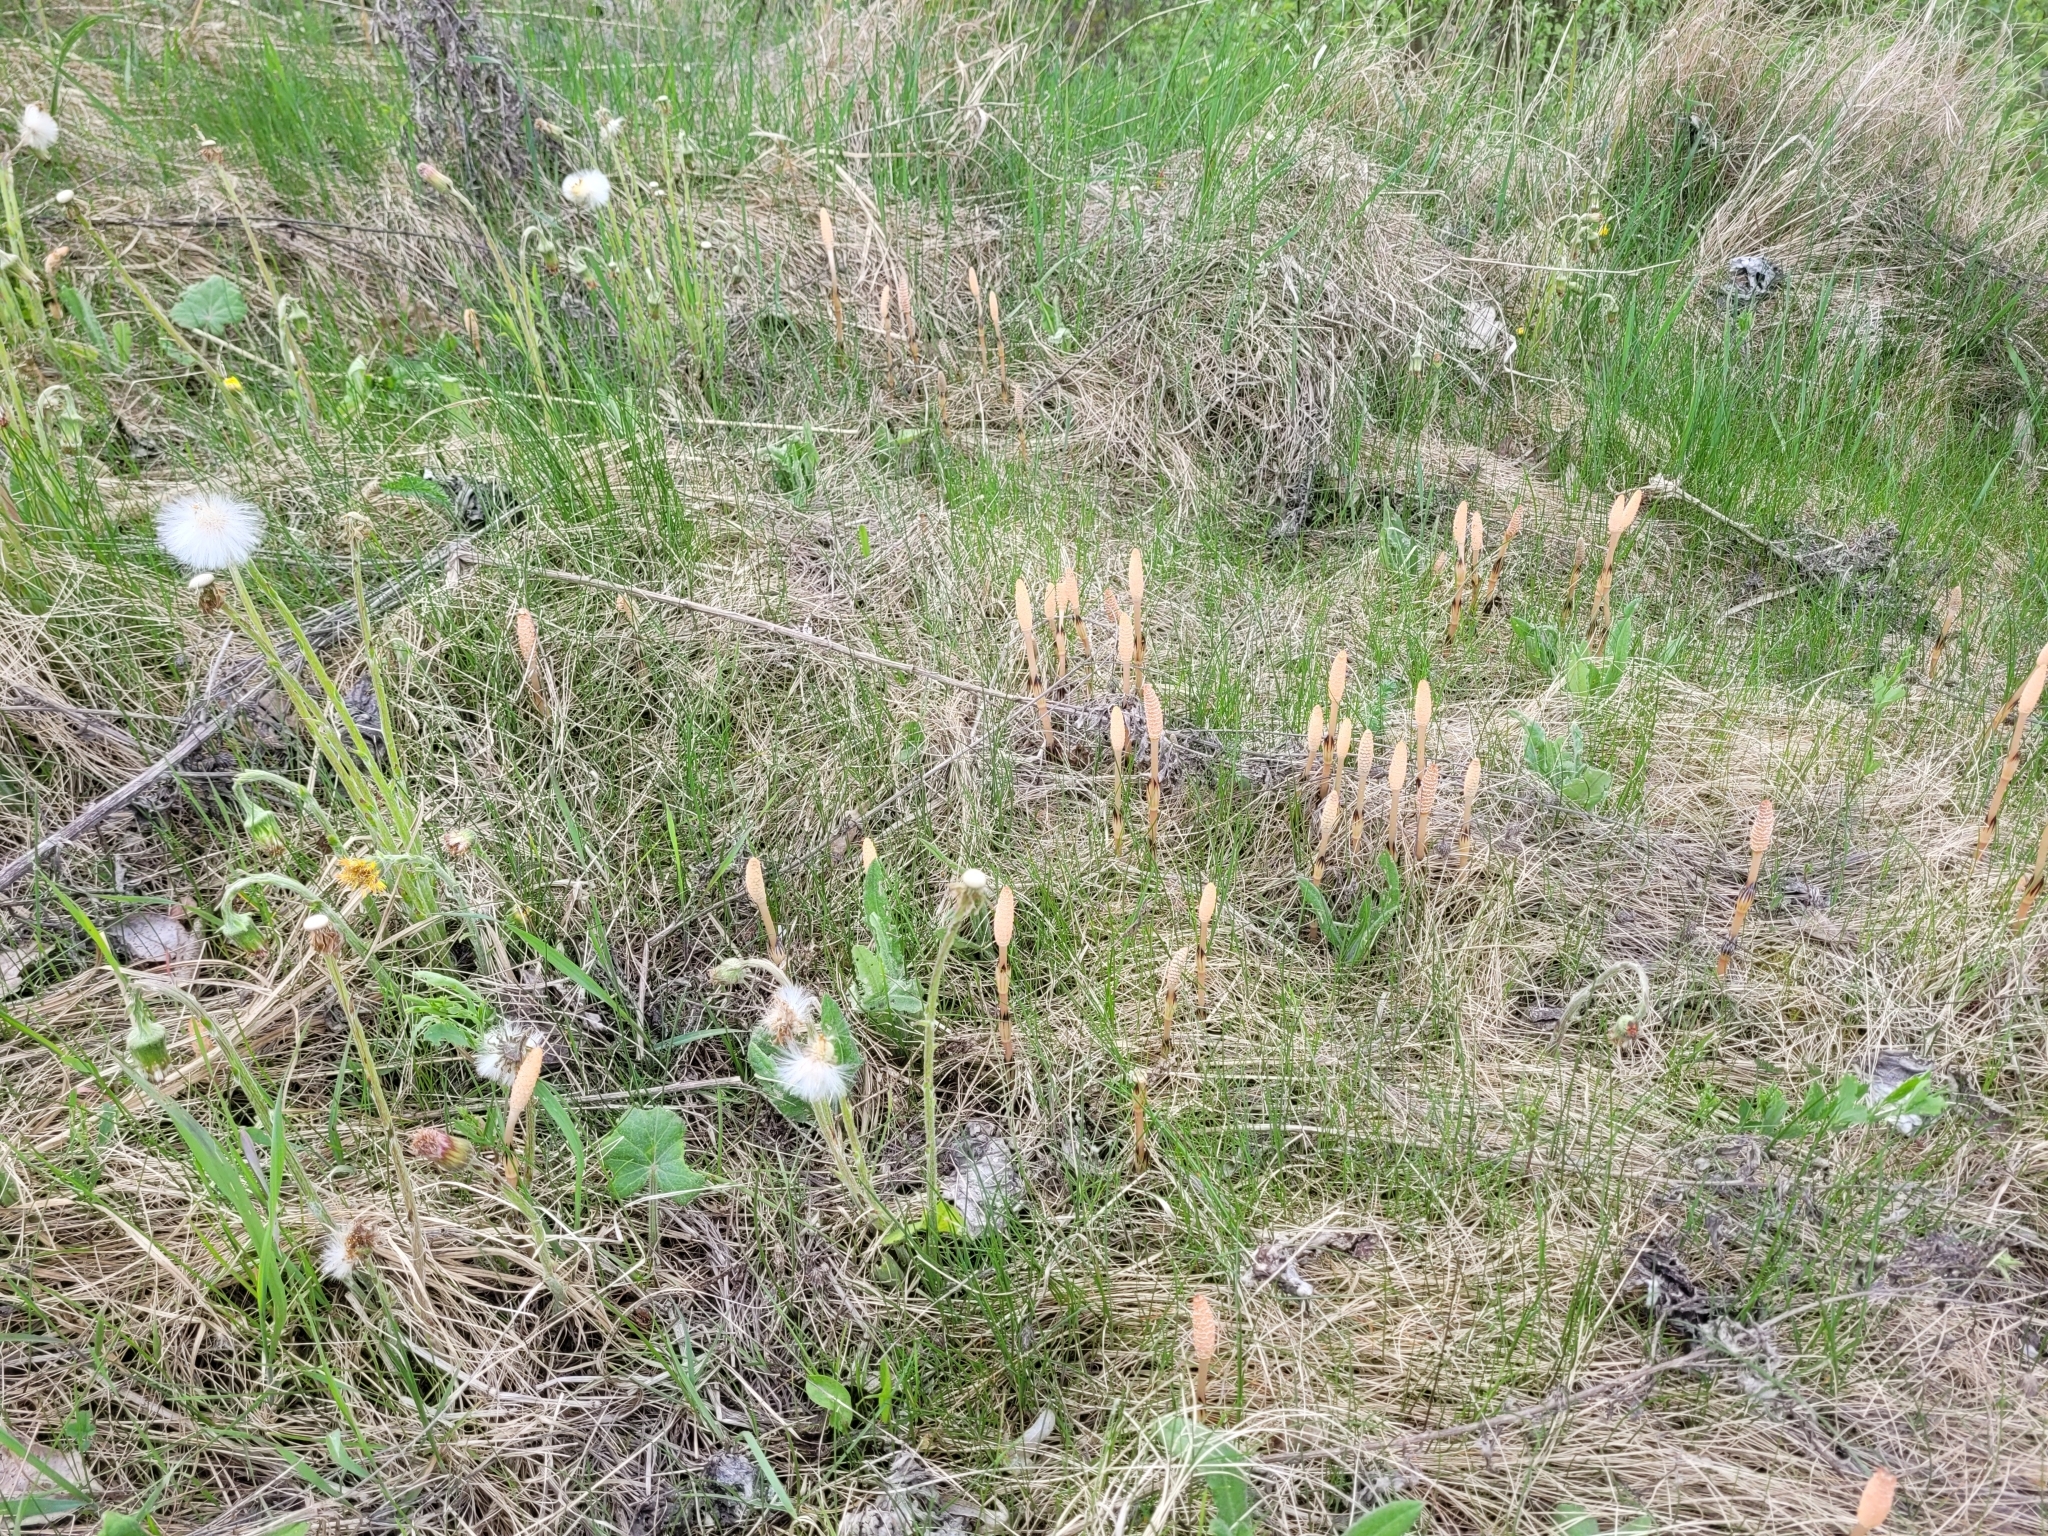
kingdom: Plantae
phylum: Tracheophyta
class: Magnoliopsida
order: Asterales
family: Asteraceae
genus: Tussilago
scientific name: Tussilago farfara
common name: Coltsfoot
